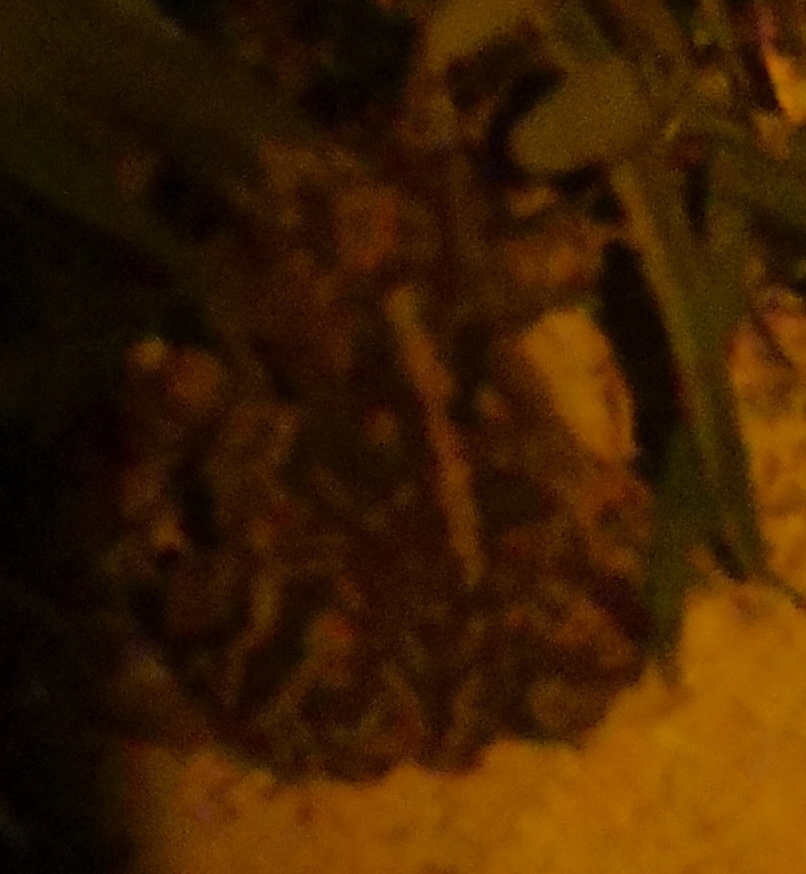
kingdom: Animalia
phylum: Chordata
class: Amphibia
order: Anura
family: Bufonidae
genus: Anaxyrus
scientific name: Anaxyrus terrestris
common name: Southern toad
